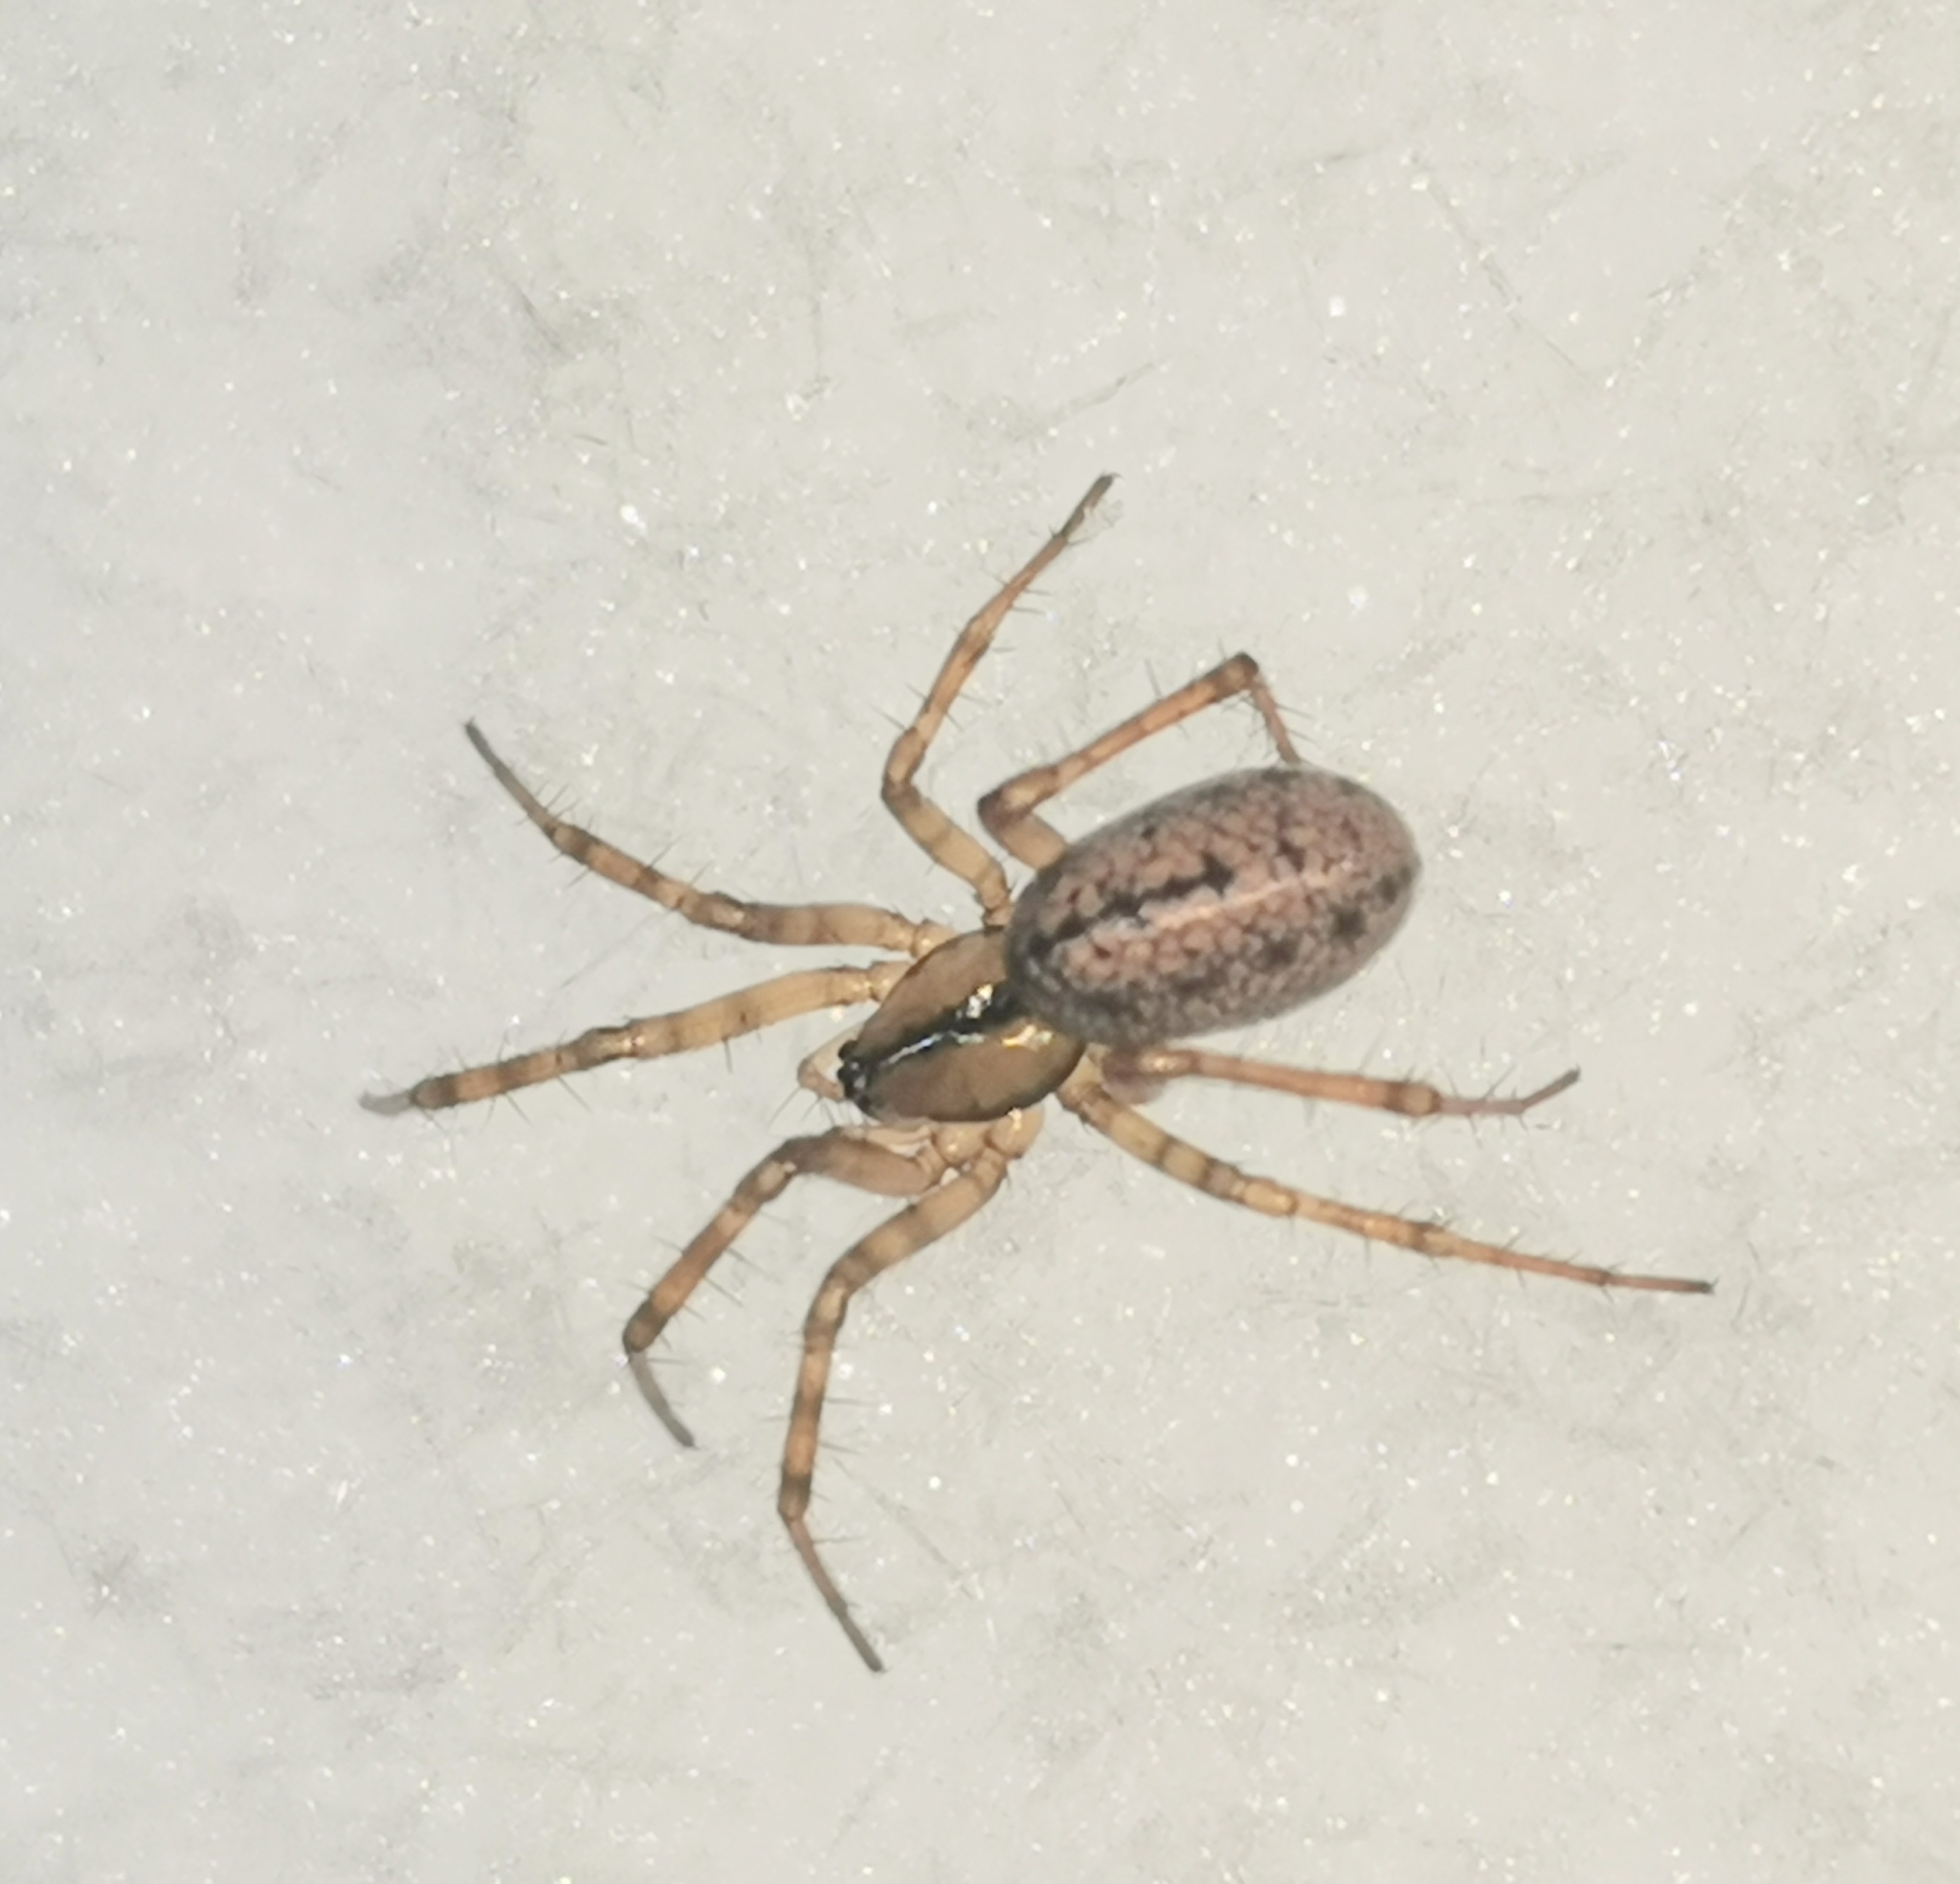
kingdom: Animalia
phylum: Arthropoda
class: Arachnida
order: Araneae
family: Linyphiidae
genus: Stemonyphantes
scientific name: Stemonyphantes lineatus
